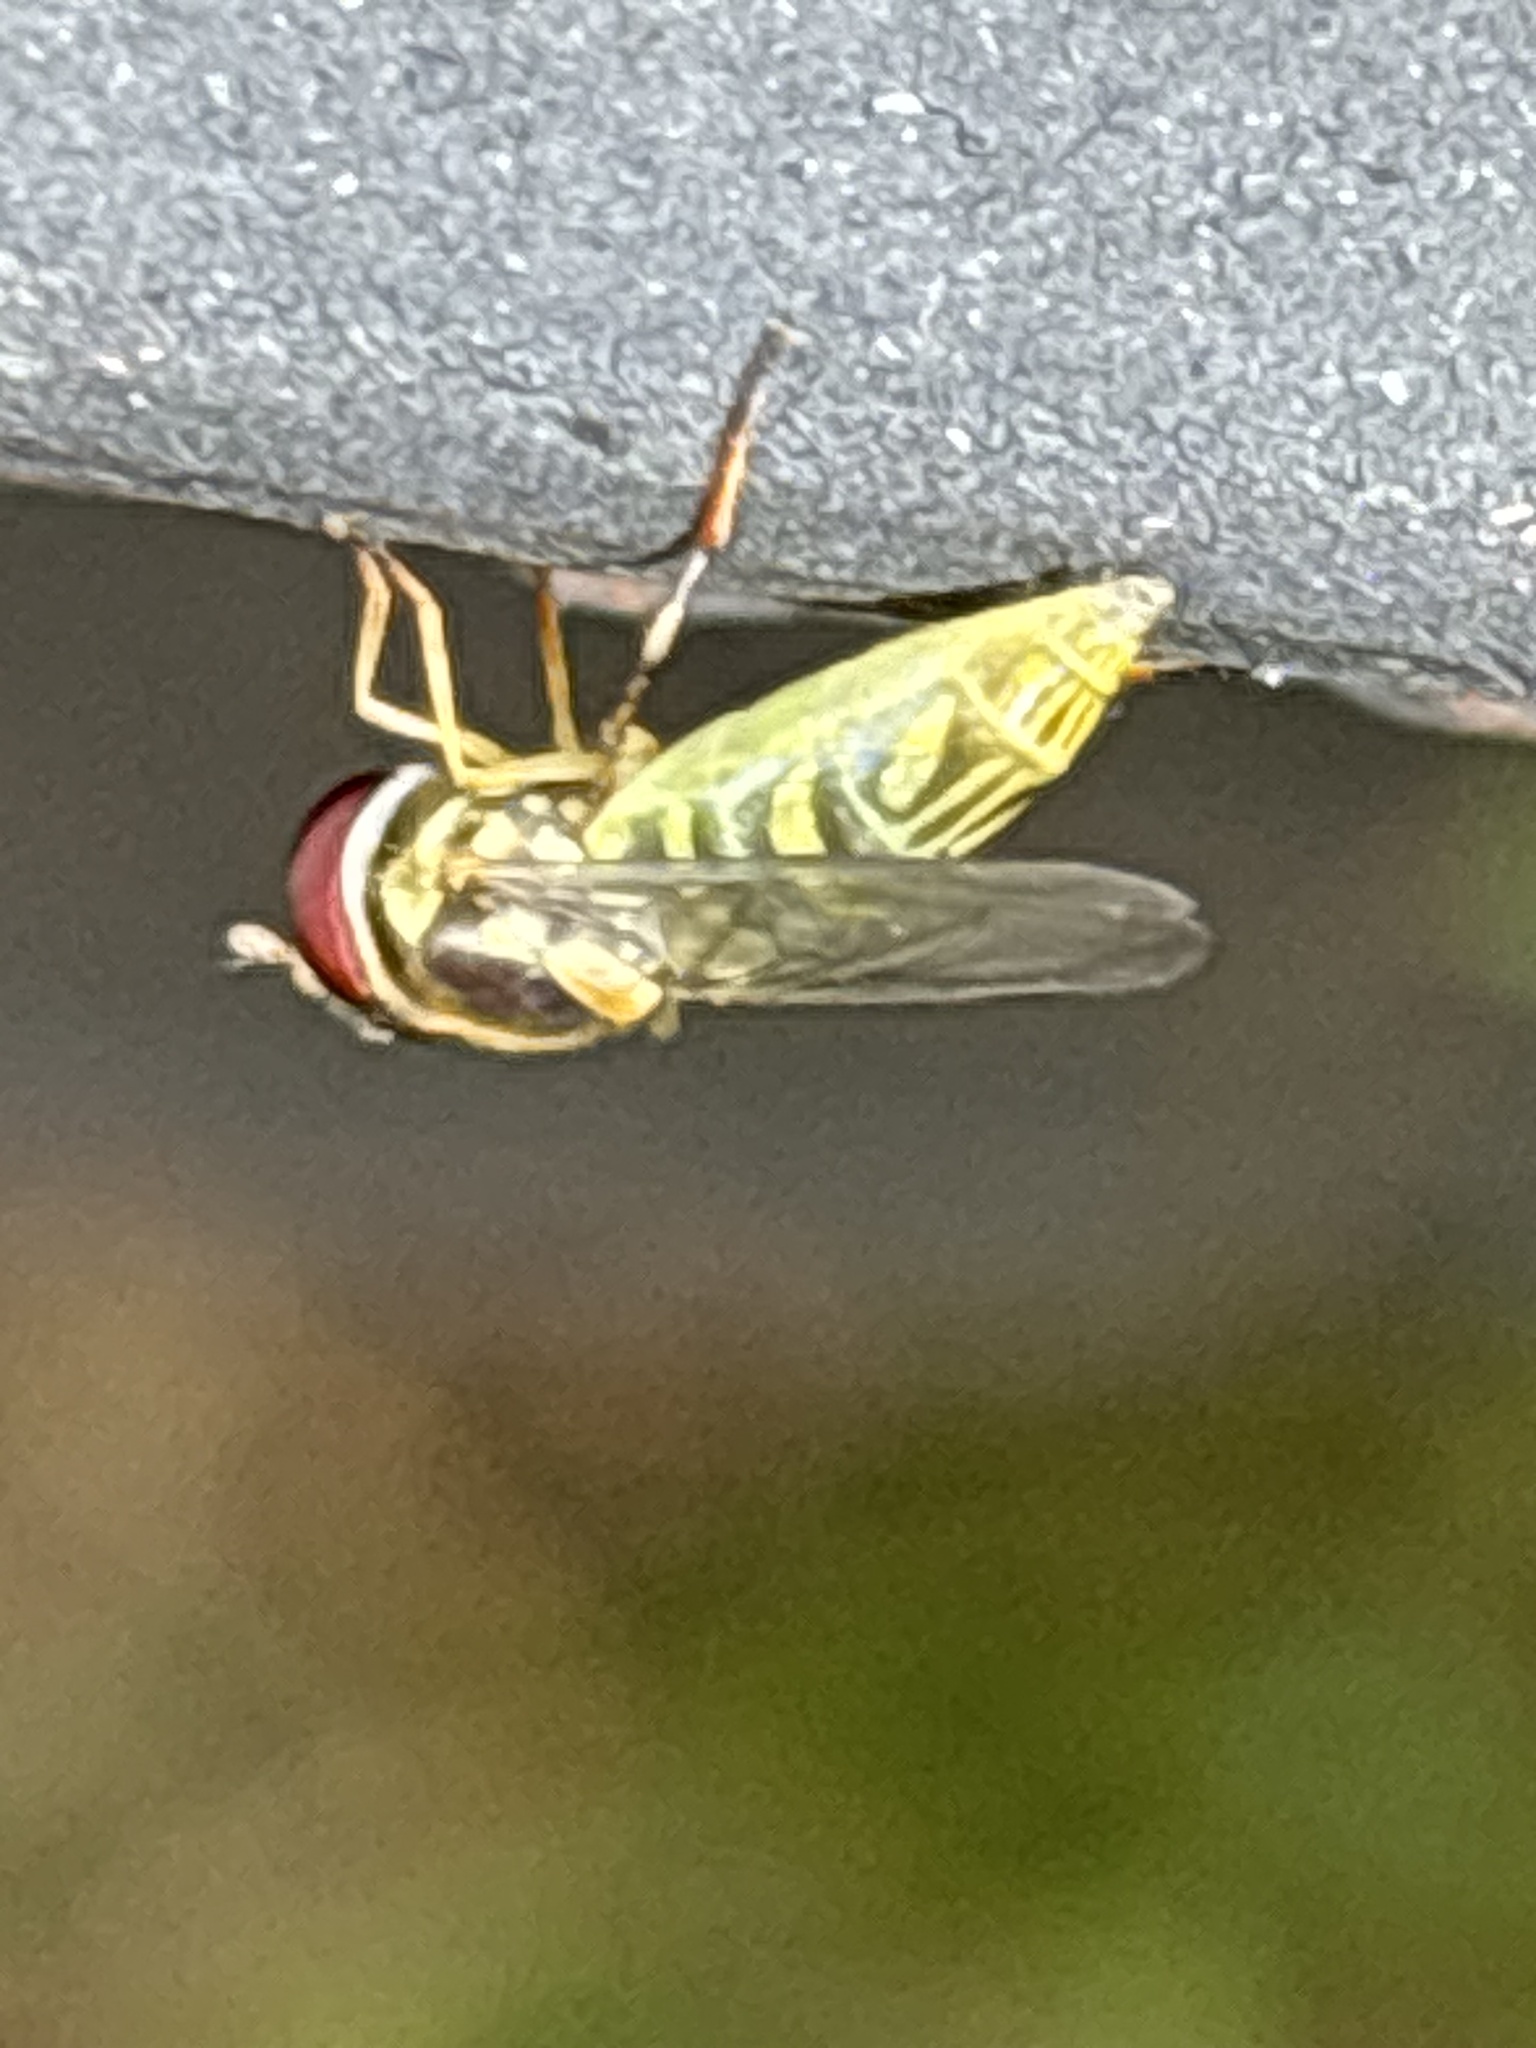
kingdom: Animalia
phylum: Arthropoda
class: Insecta
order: Diptera
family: Syrphidae
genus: Allograpta
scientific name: Allograpta obliqua
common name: Common oblique syrphid
